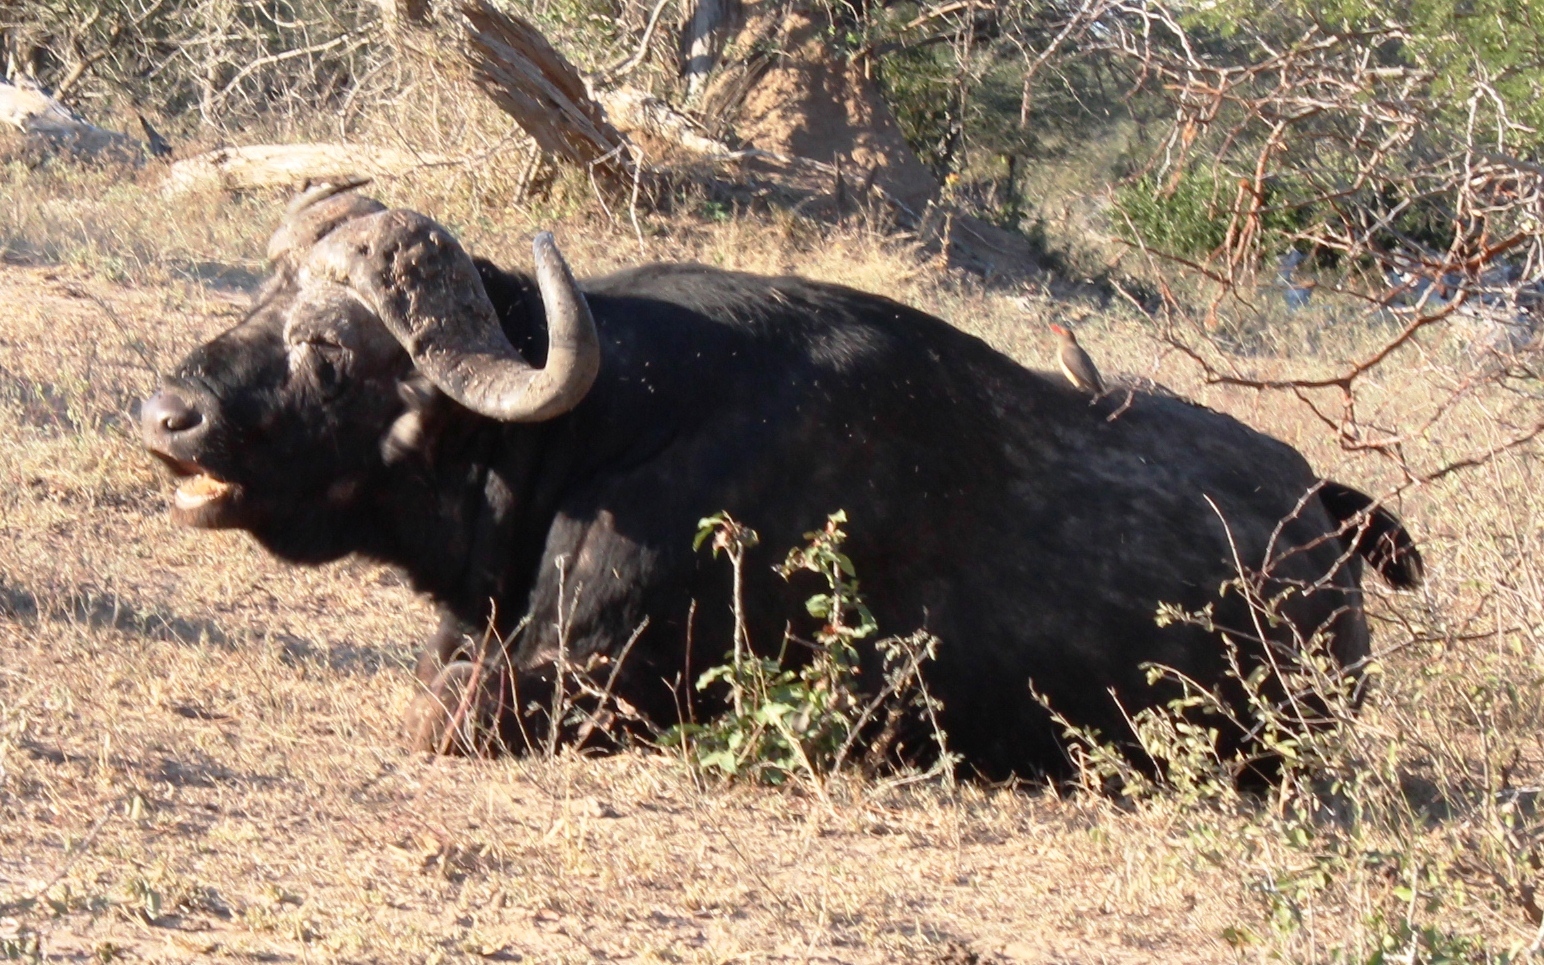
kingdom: Animalia
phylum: Chordata
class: Mammalia
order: Artiodactyla
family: Bovidae
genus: Syncerus
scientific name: Syncerus caffer
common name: African buffalo
